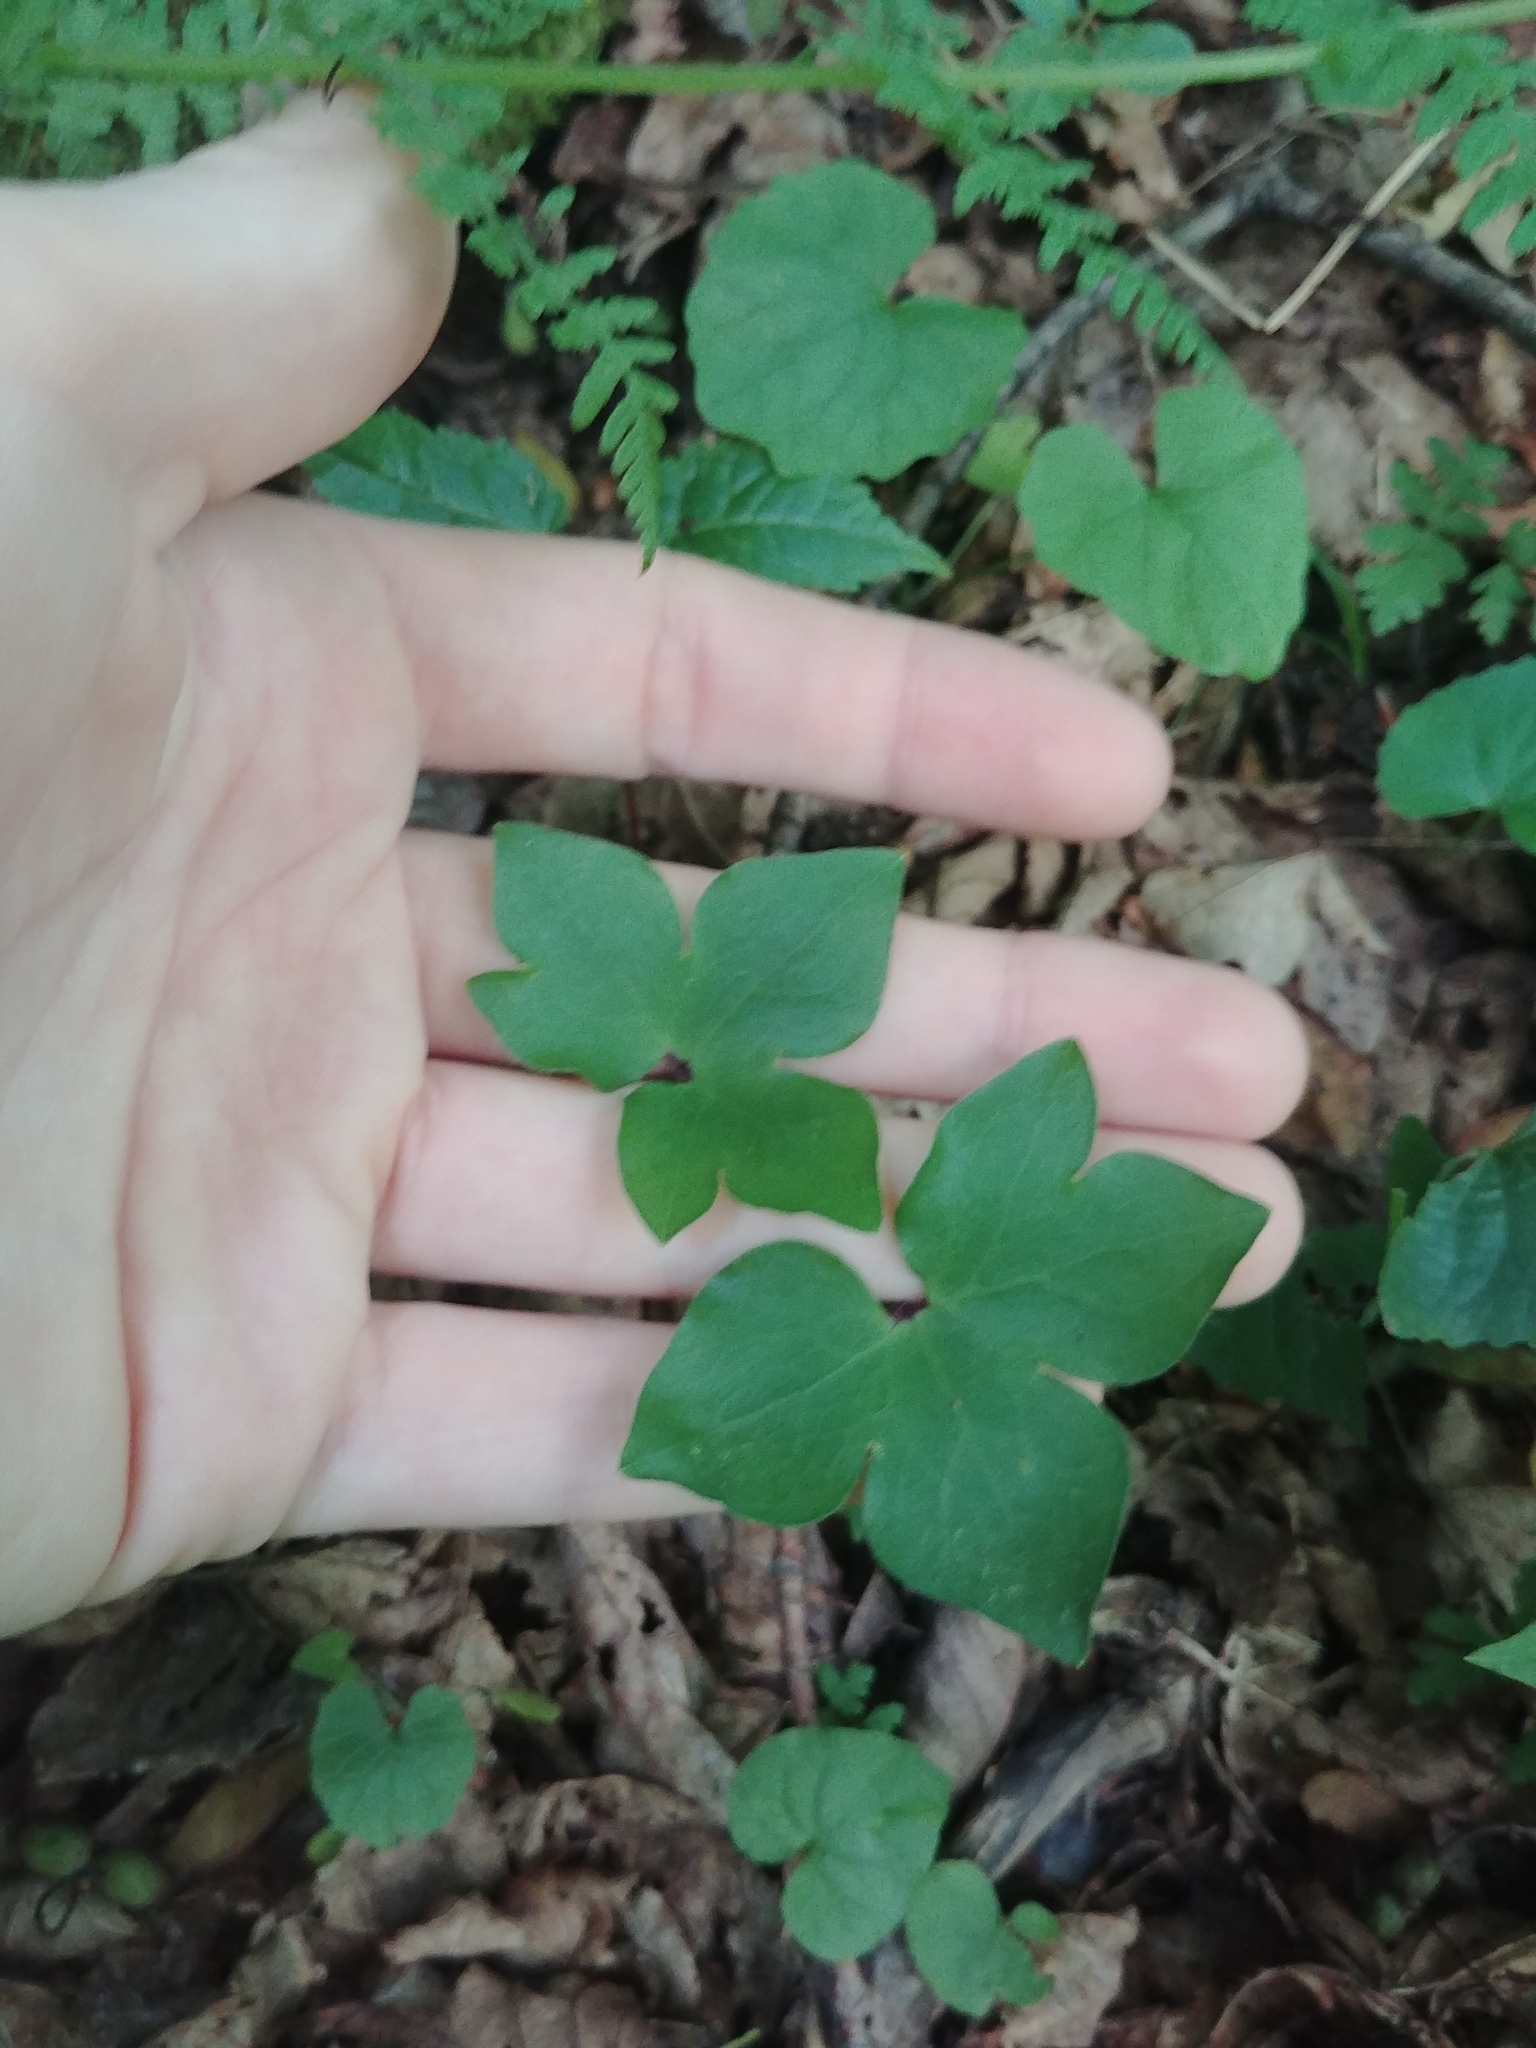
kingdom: Plantae
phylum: Tracheophyta
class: Magnoliopsida
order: Ranunculales
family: Ranunculaceae
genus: Hepatica
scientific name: Hepatica acutiloba
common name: Sharp-lobed hepatica
